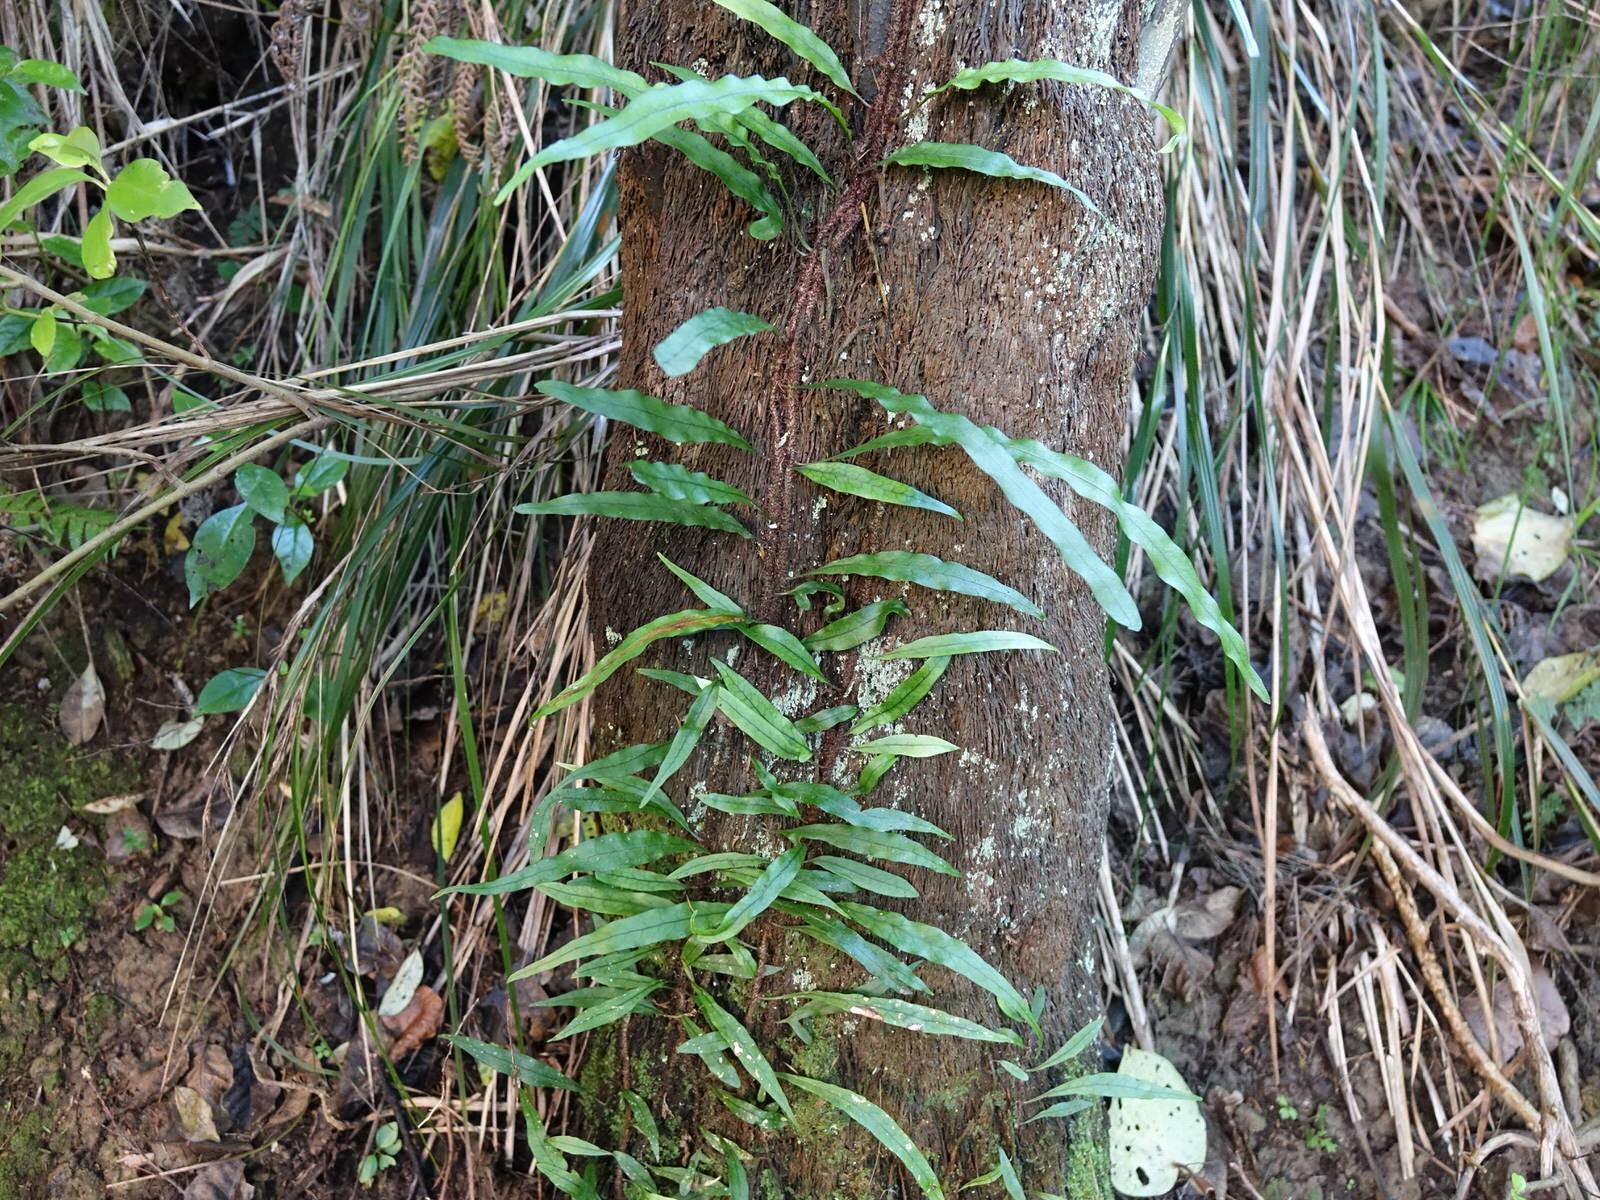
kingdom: Plantae
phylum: Tracheophyta
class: Polypodiopsida
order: Polypodiales
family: Polypodiaceae
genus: Lecanopteris
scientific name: Lecanopteris scandens
